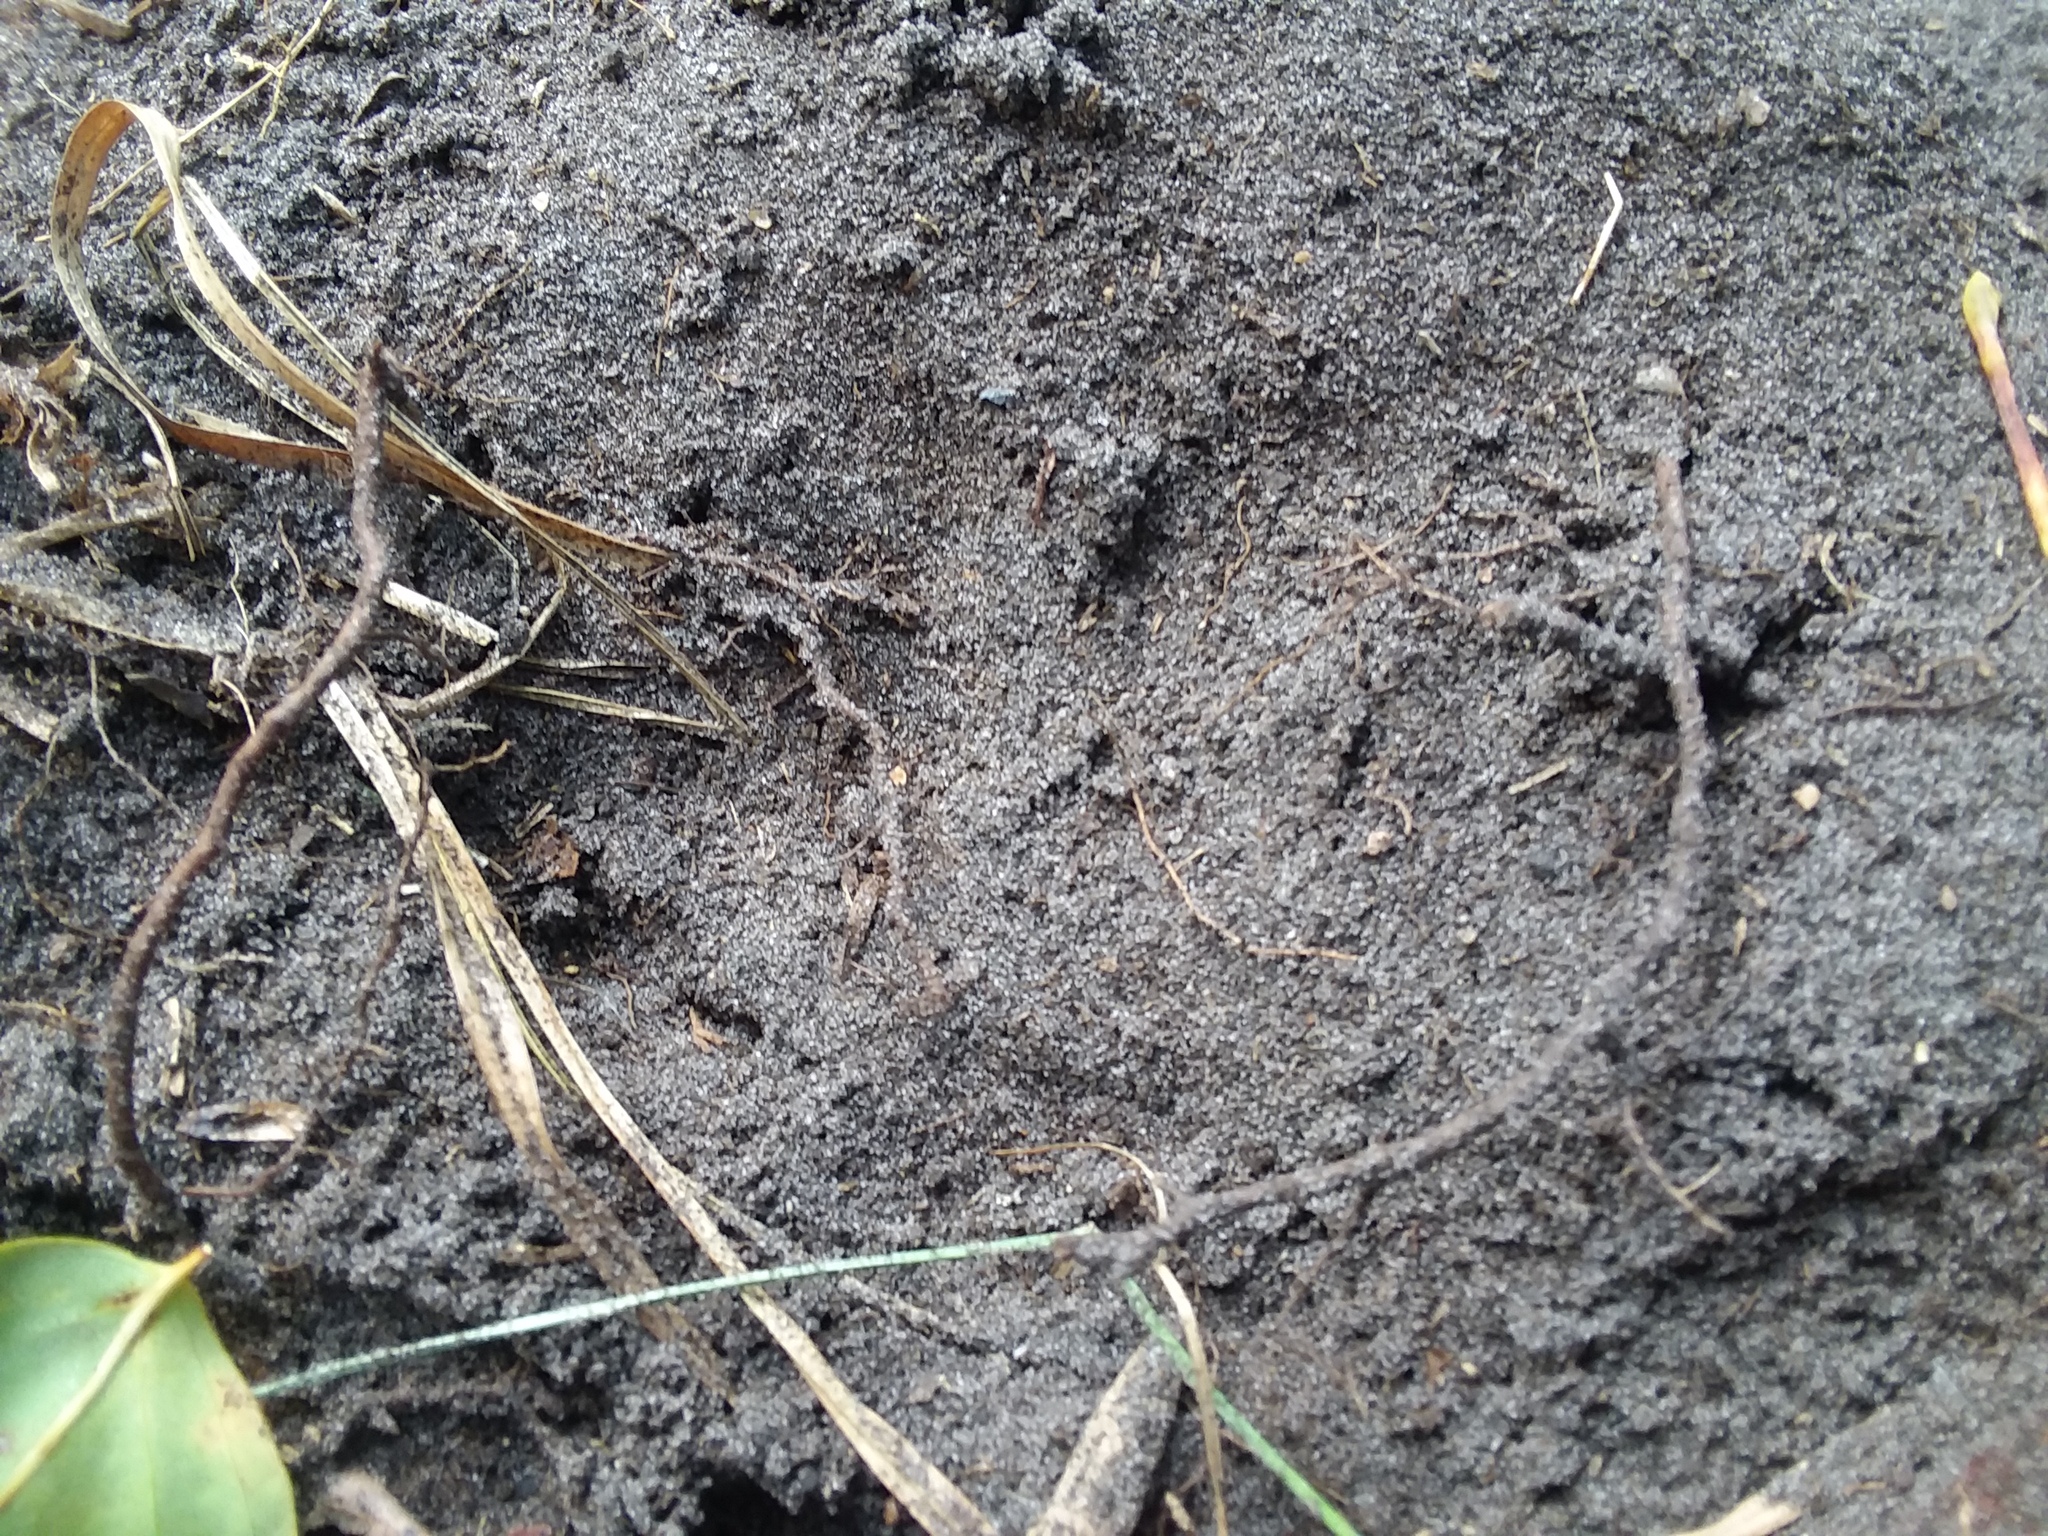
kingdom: Animalia
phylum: Chordata
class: Mammalia
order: Artiodactyla
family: Cervidae
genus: Odocoileus
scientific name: Odocoileus virginianus
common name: White-tailed deer
